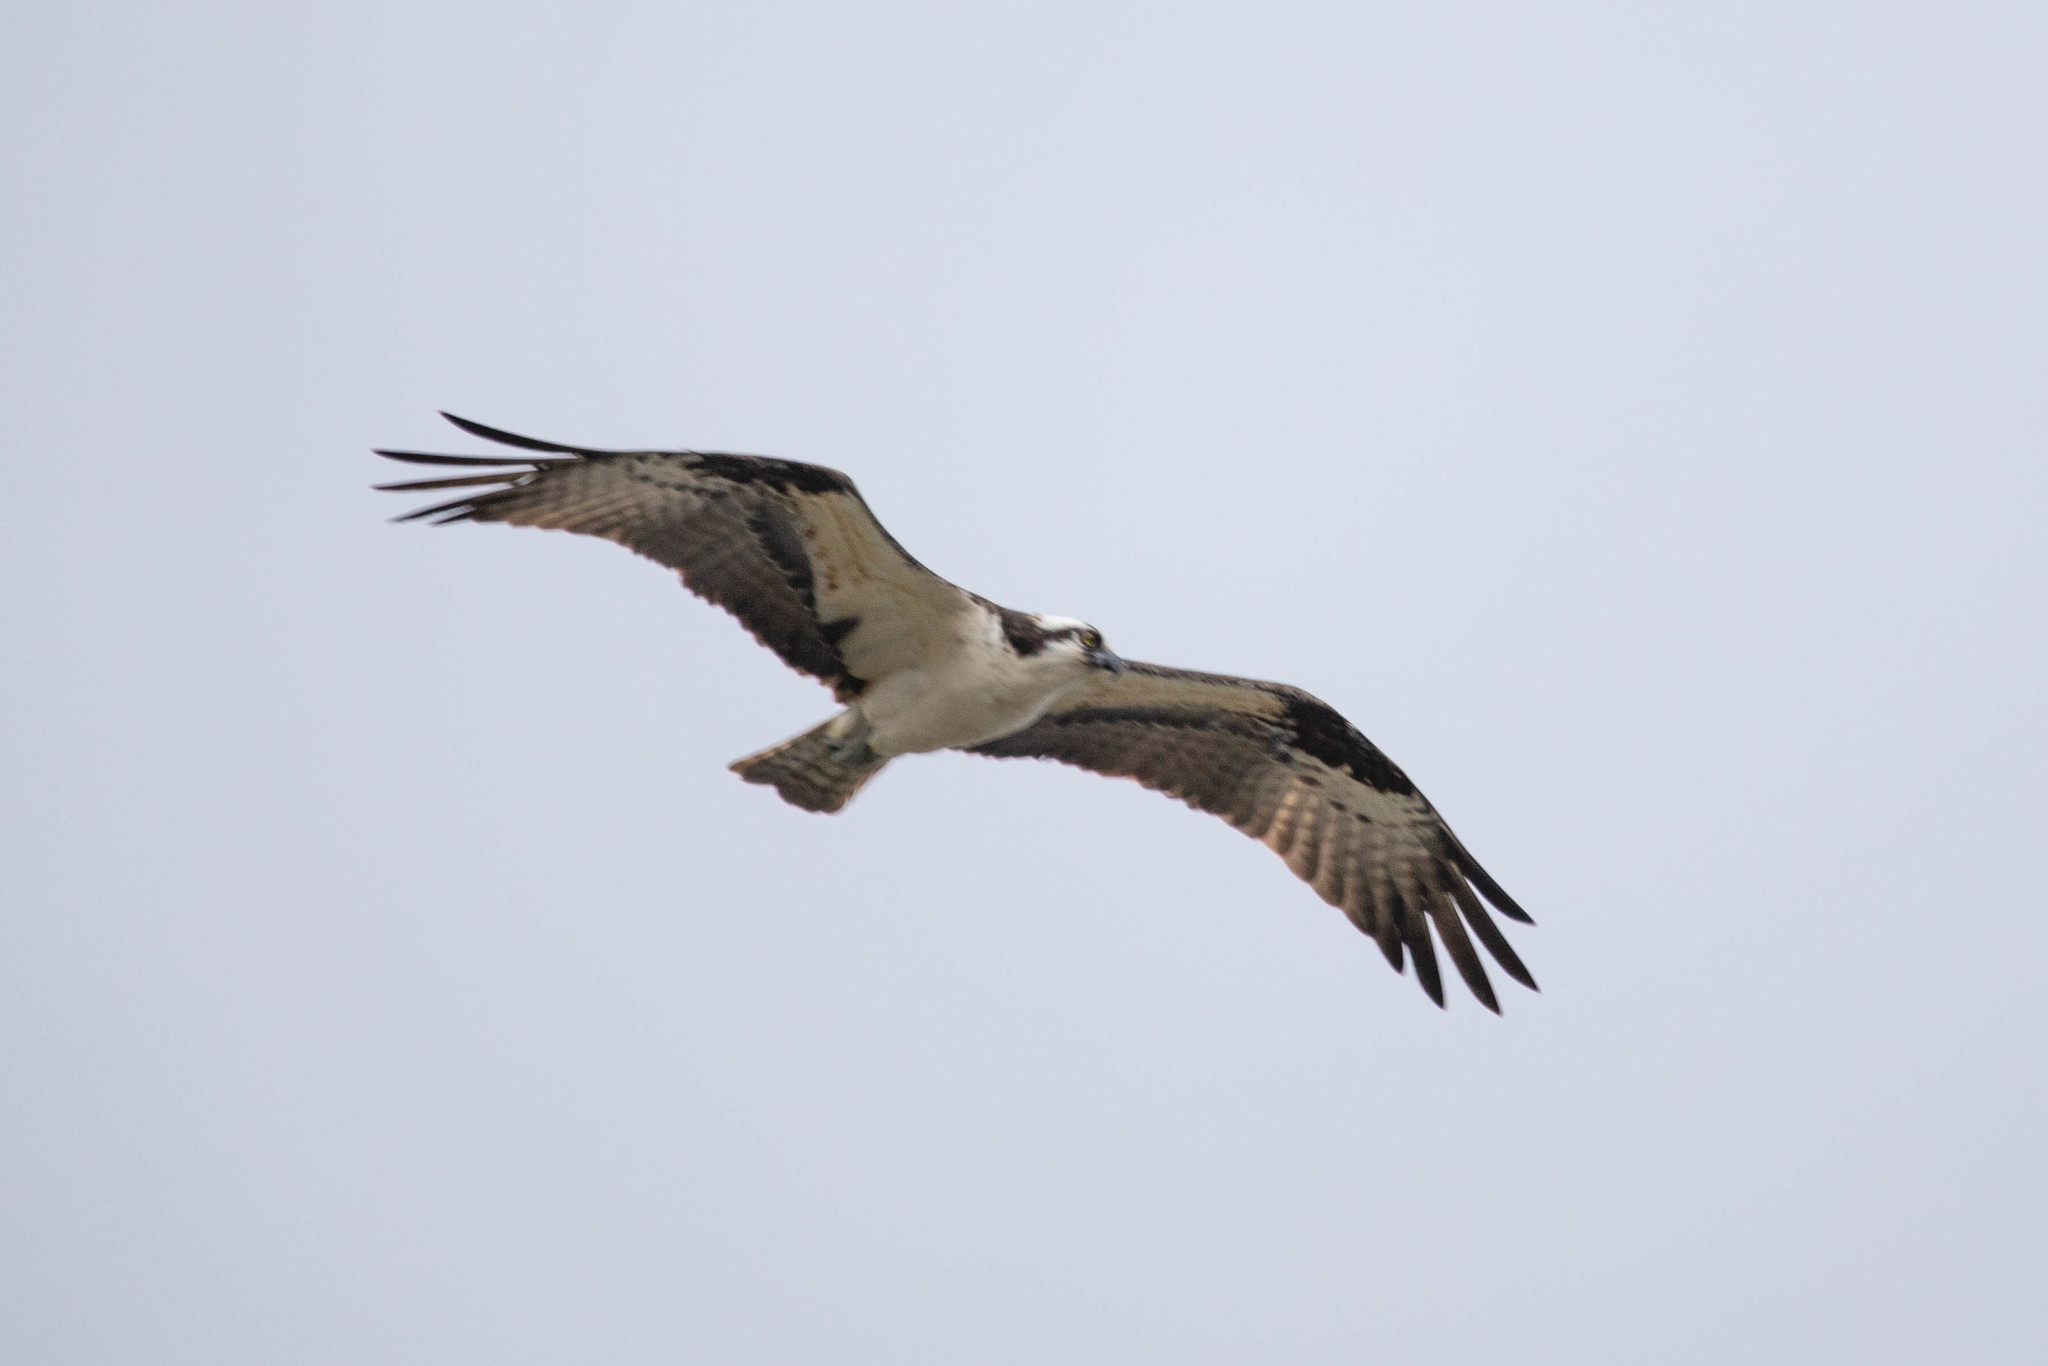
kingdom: Animalia
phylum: Chordata
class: Aves
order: Accipitriformes
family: Pandionidae
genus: Pandion
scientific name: Pandion haliaetus
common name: Osprey
